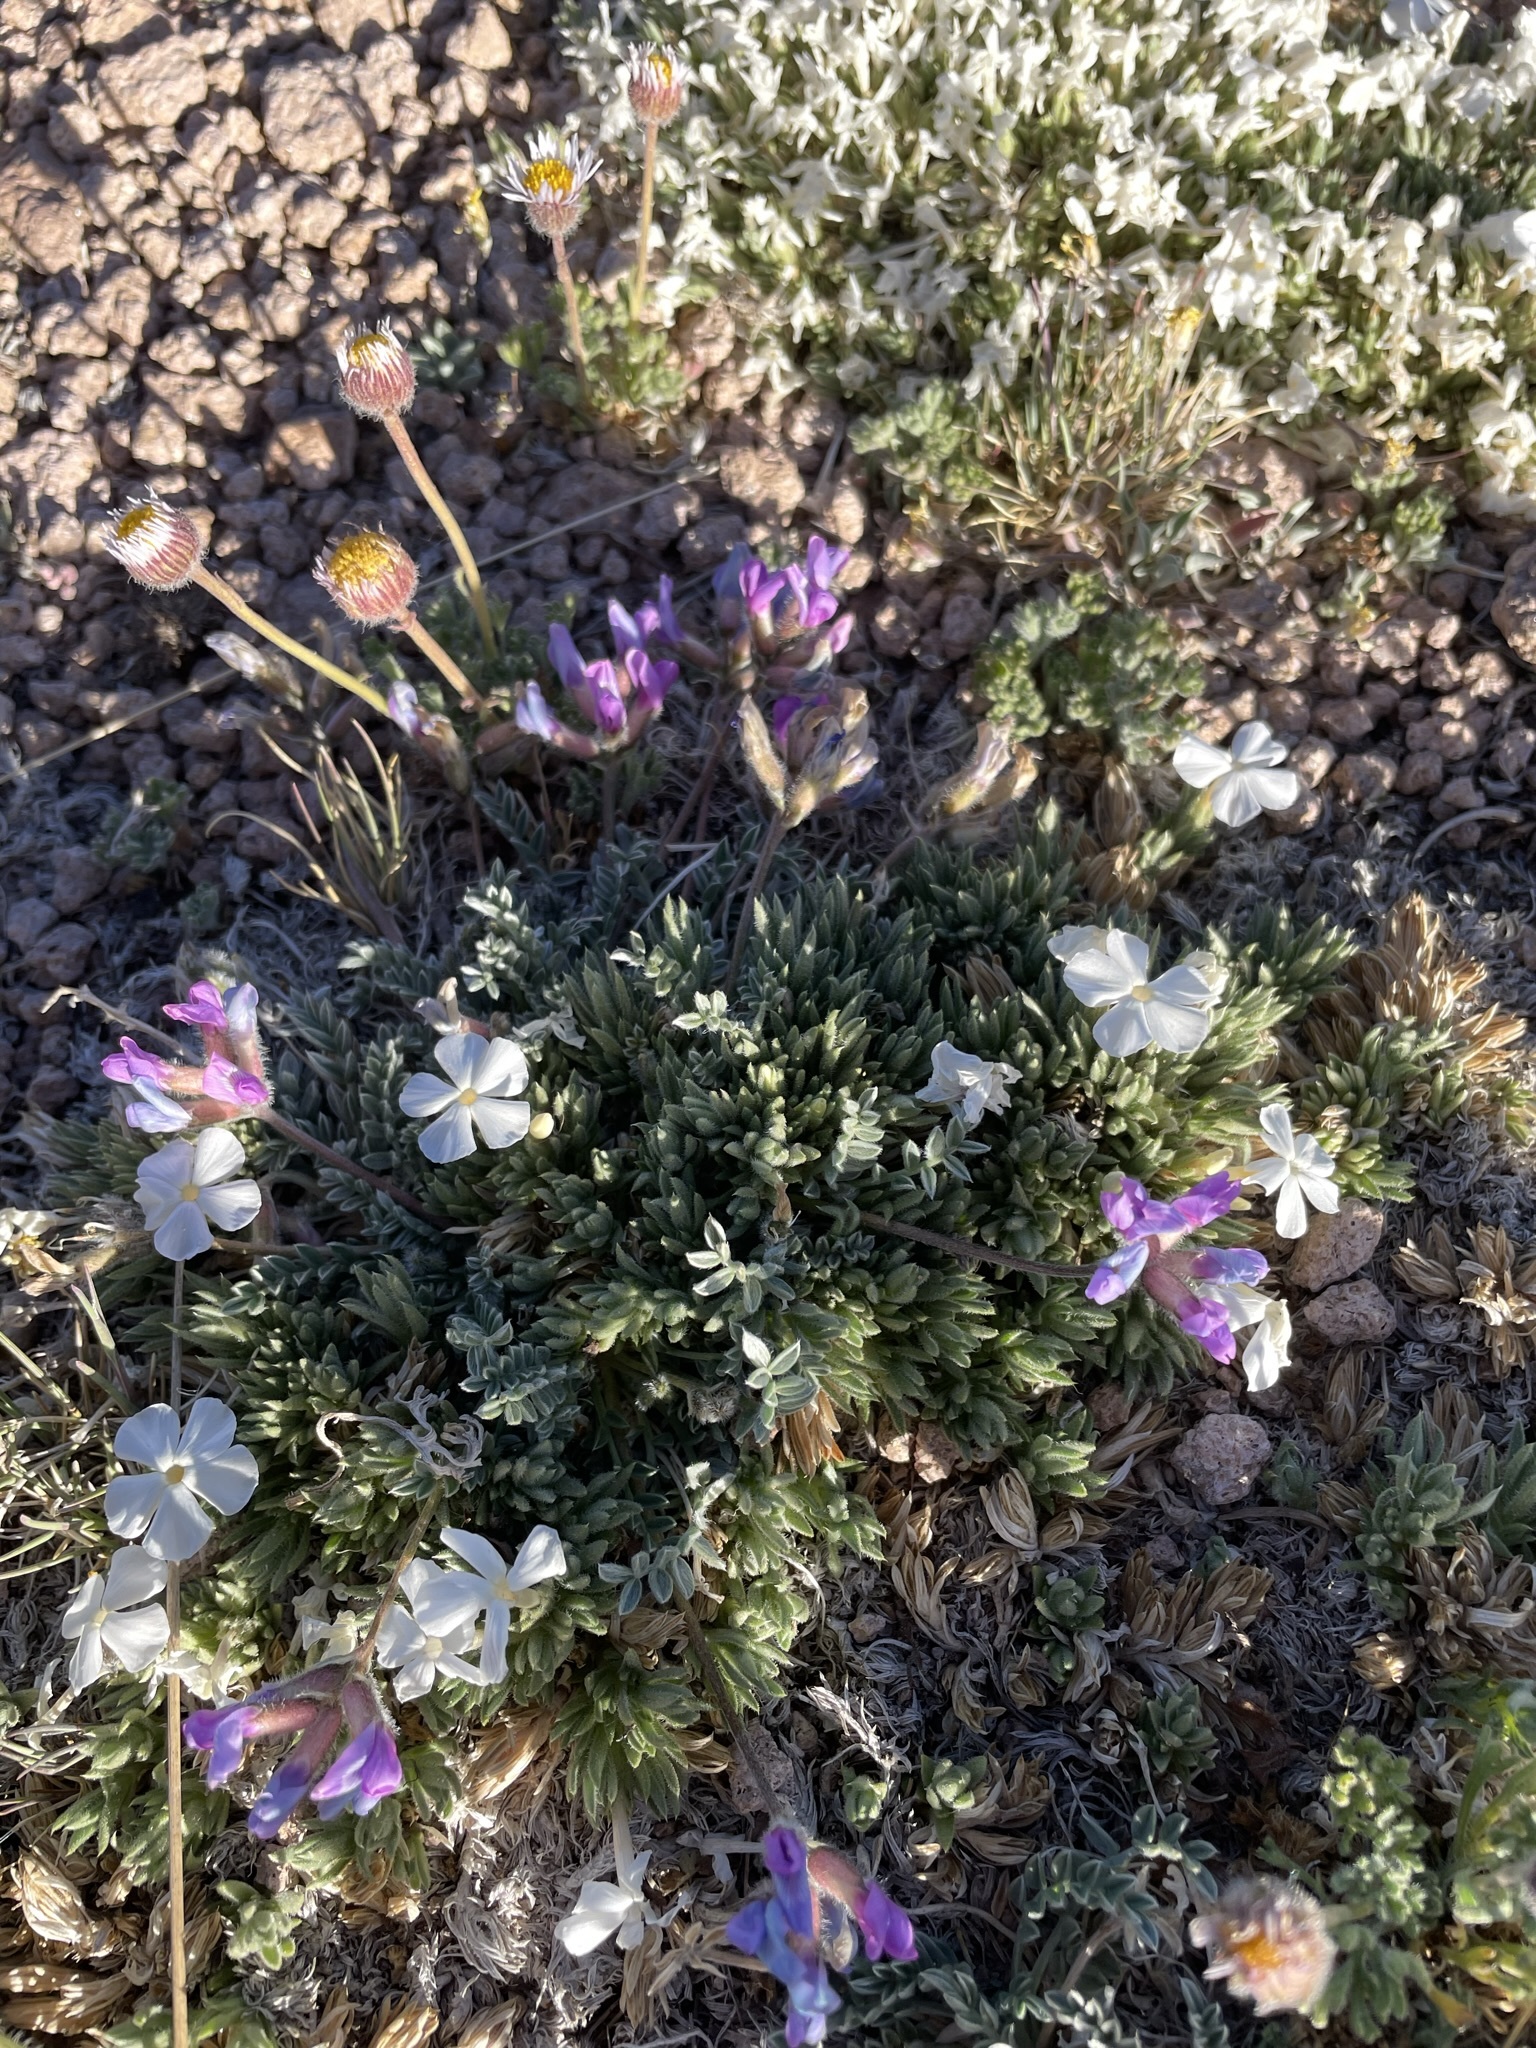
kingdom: Plantae
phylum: Tracheophyta
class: Magnoliopsida
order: Fabales
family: Fabaceae
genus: Oxytropis
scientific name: Oxytropis oreophila
